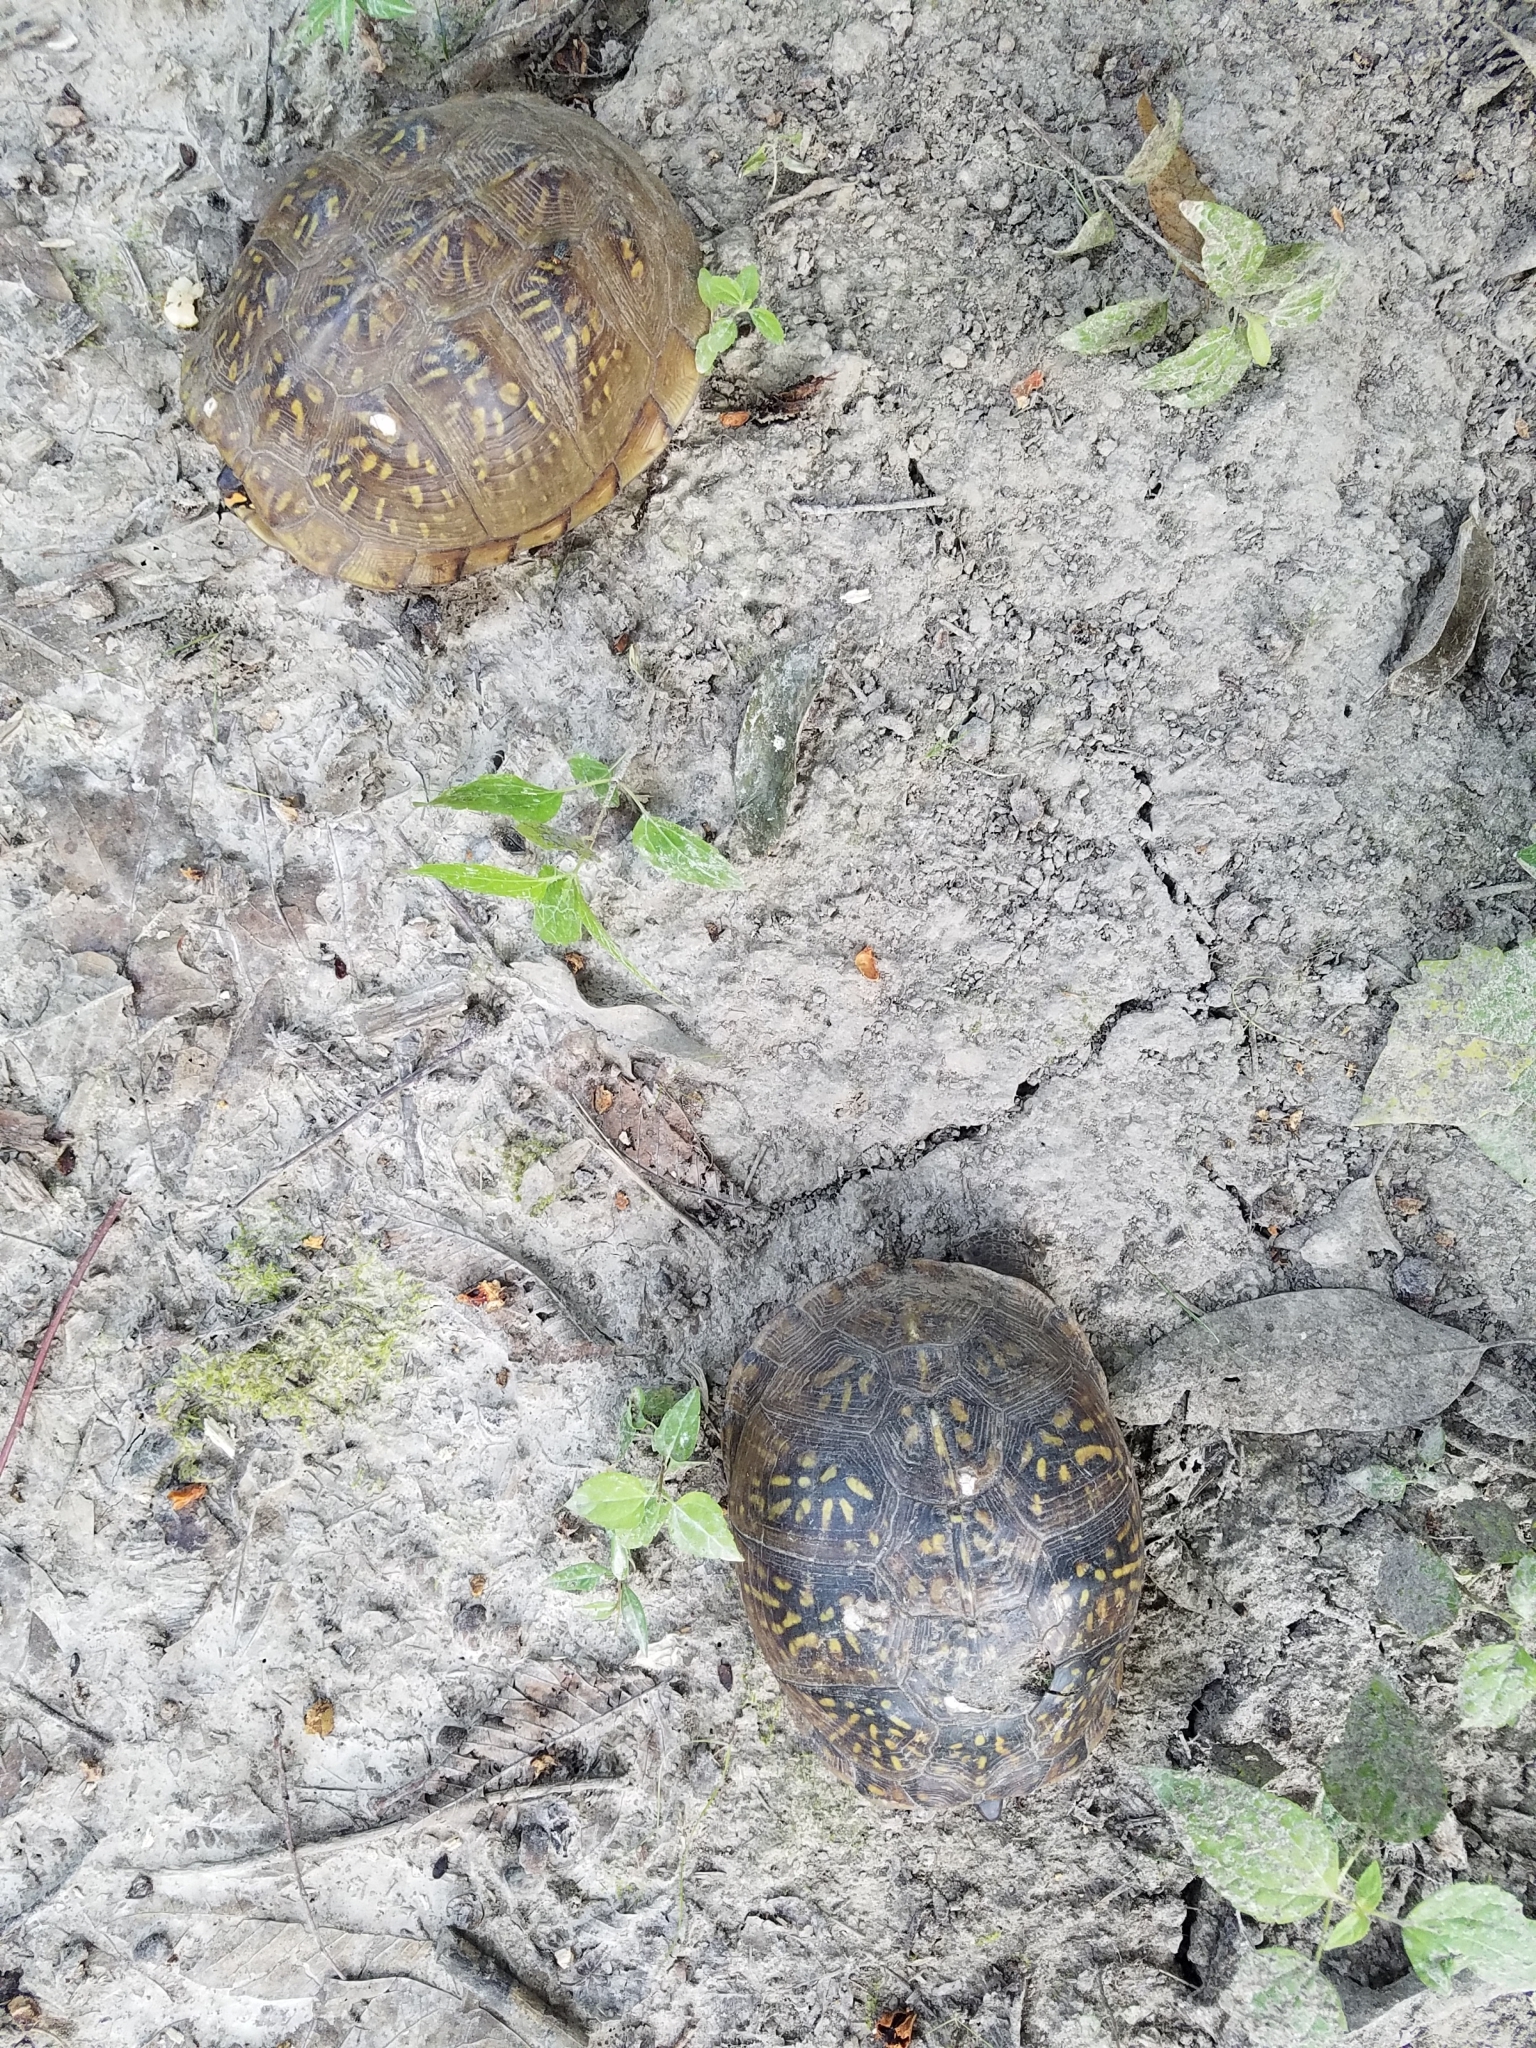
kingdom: Animalia
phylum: Chordata
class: Testudines
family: Emydidae
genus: Terrapene
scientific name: Terrapene carolina
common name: Common box turtle
